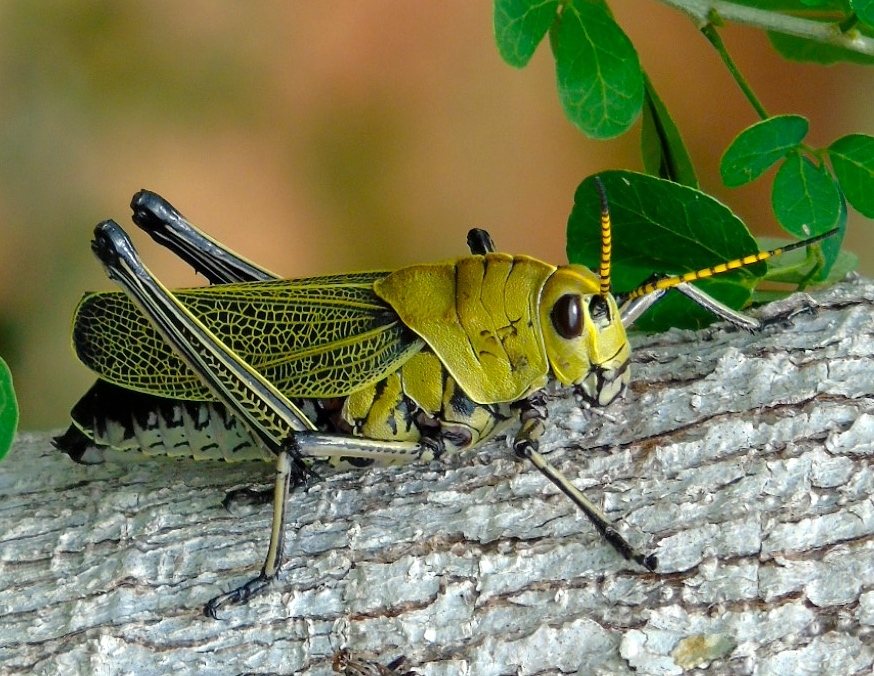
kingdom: Animalia
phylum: Arthropoda
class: Insecta
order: Orthoptera
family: Romaleidae
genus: Romalea
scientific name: Romalea
